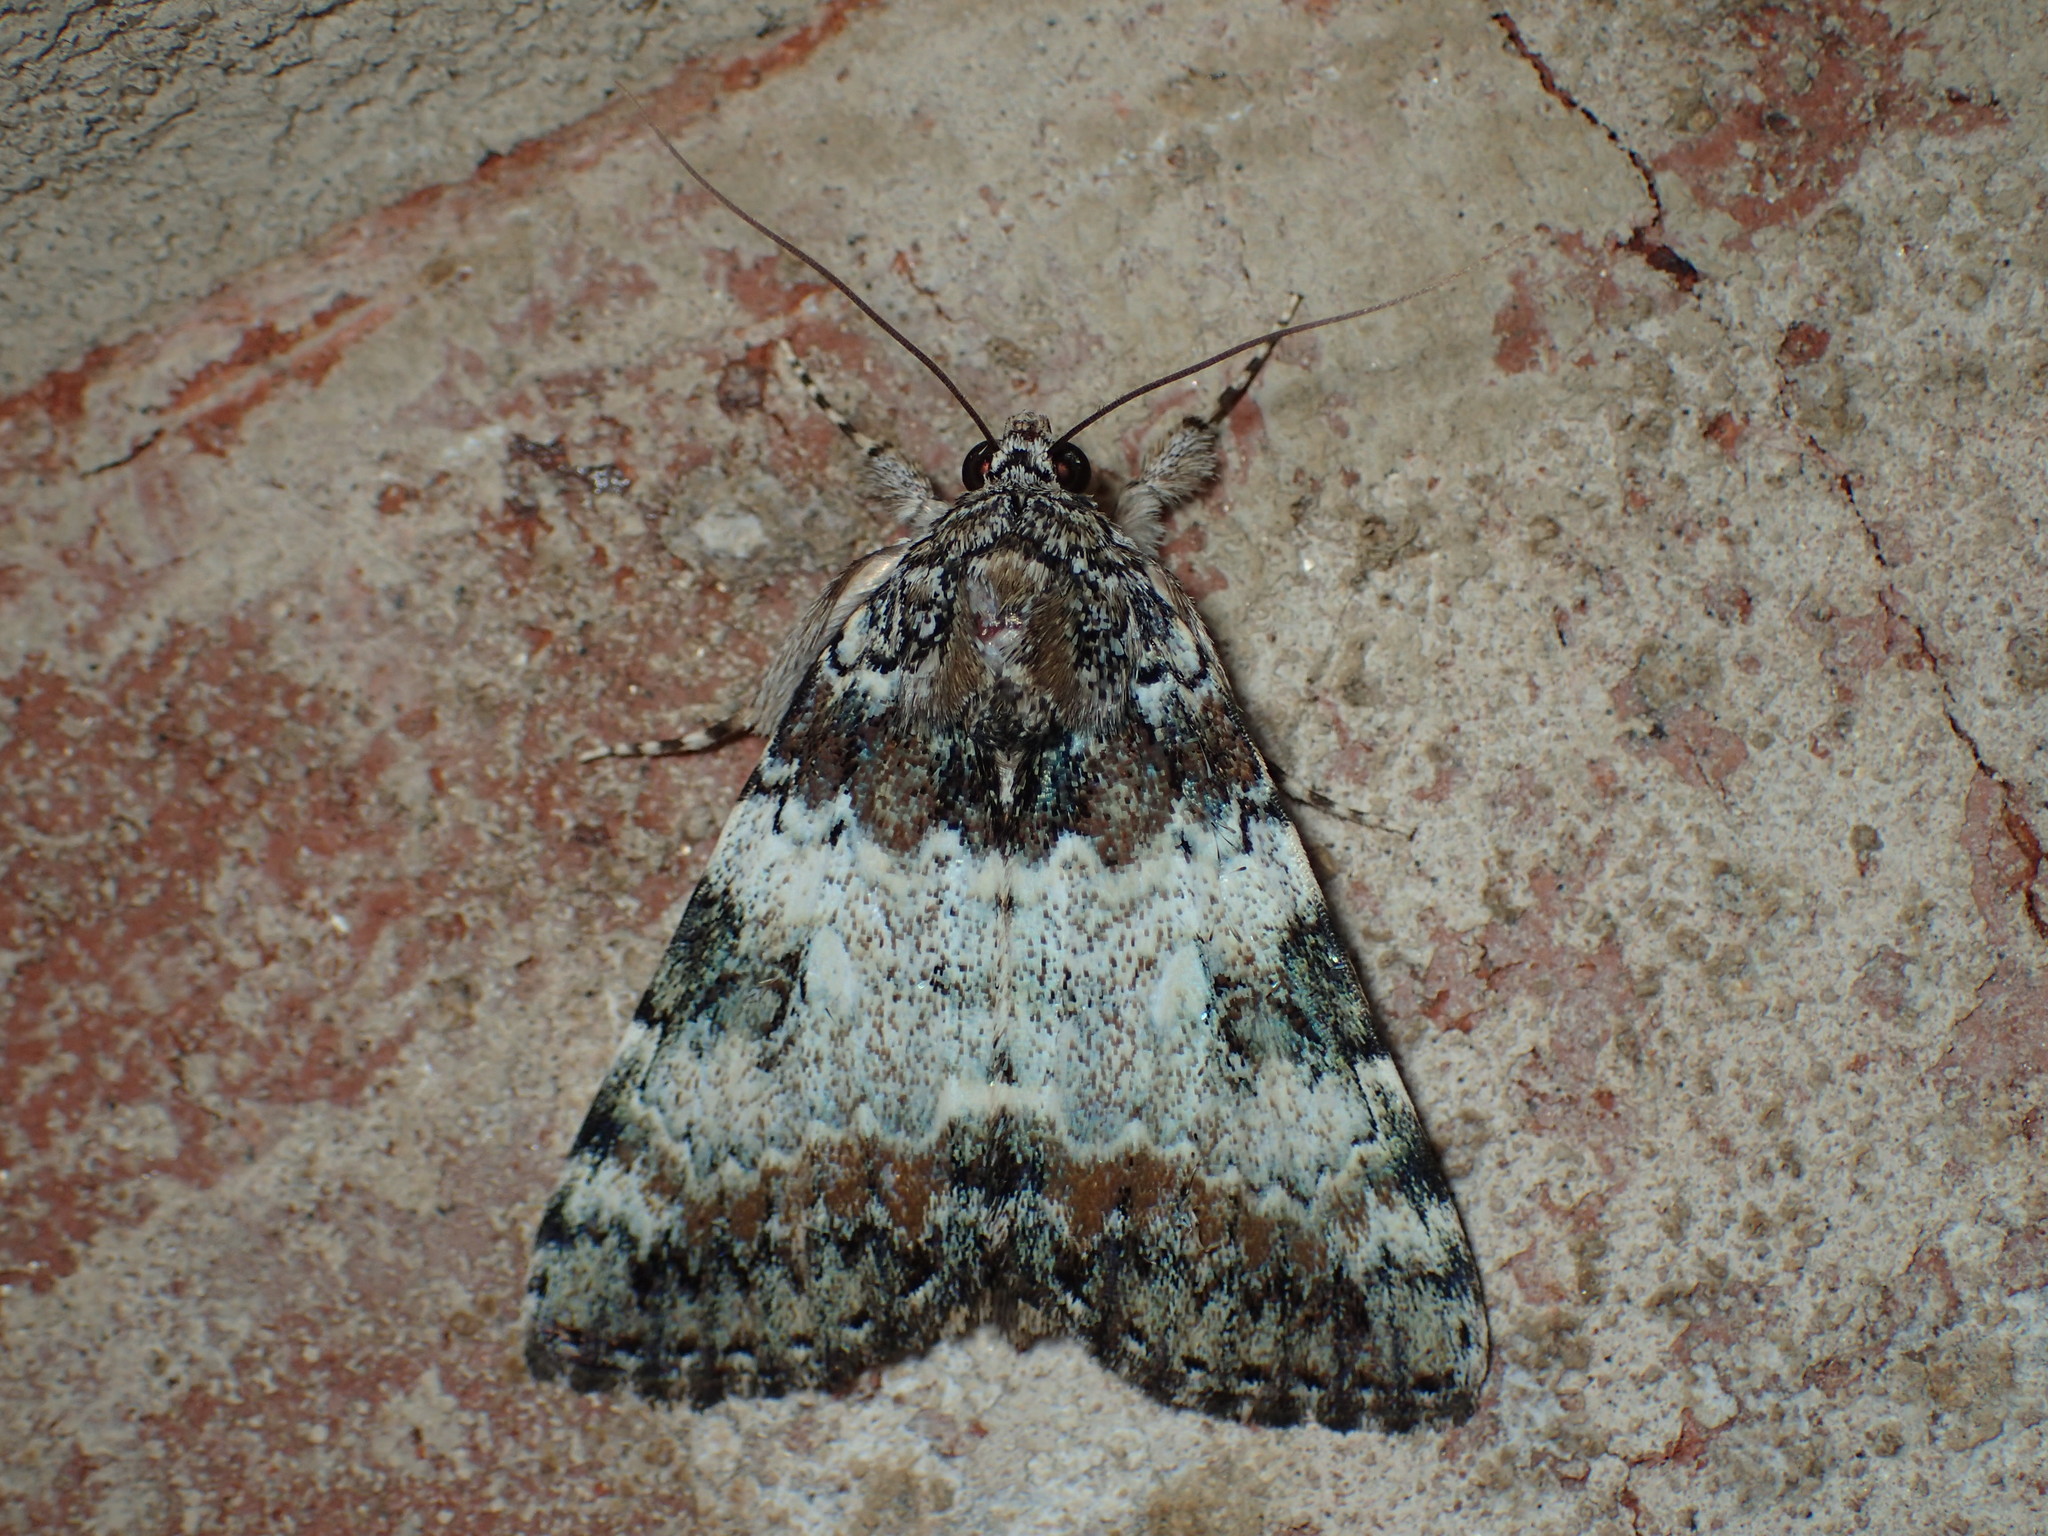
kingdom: Animalia
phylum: Arthropoda
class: Insecta
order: Lepidoptera
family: Erebidae
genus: Catocala
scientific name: Catocala connubialis
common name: Connubial underwing
